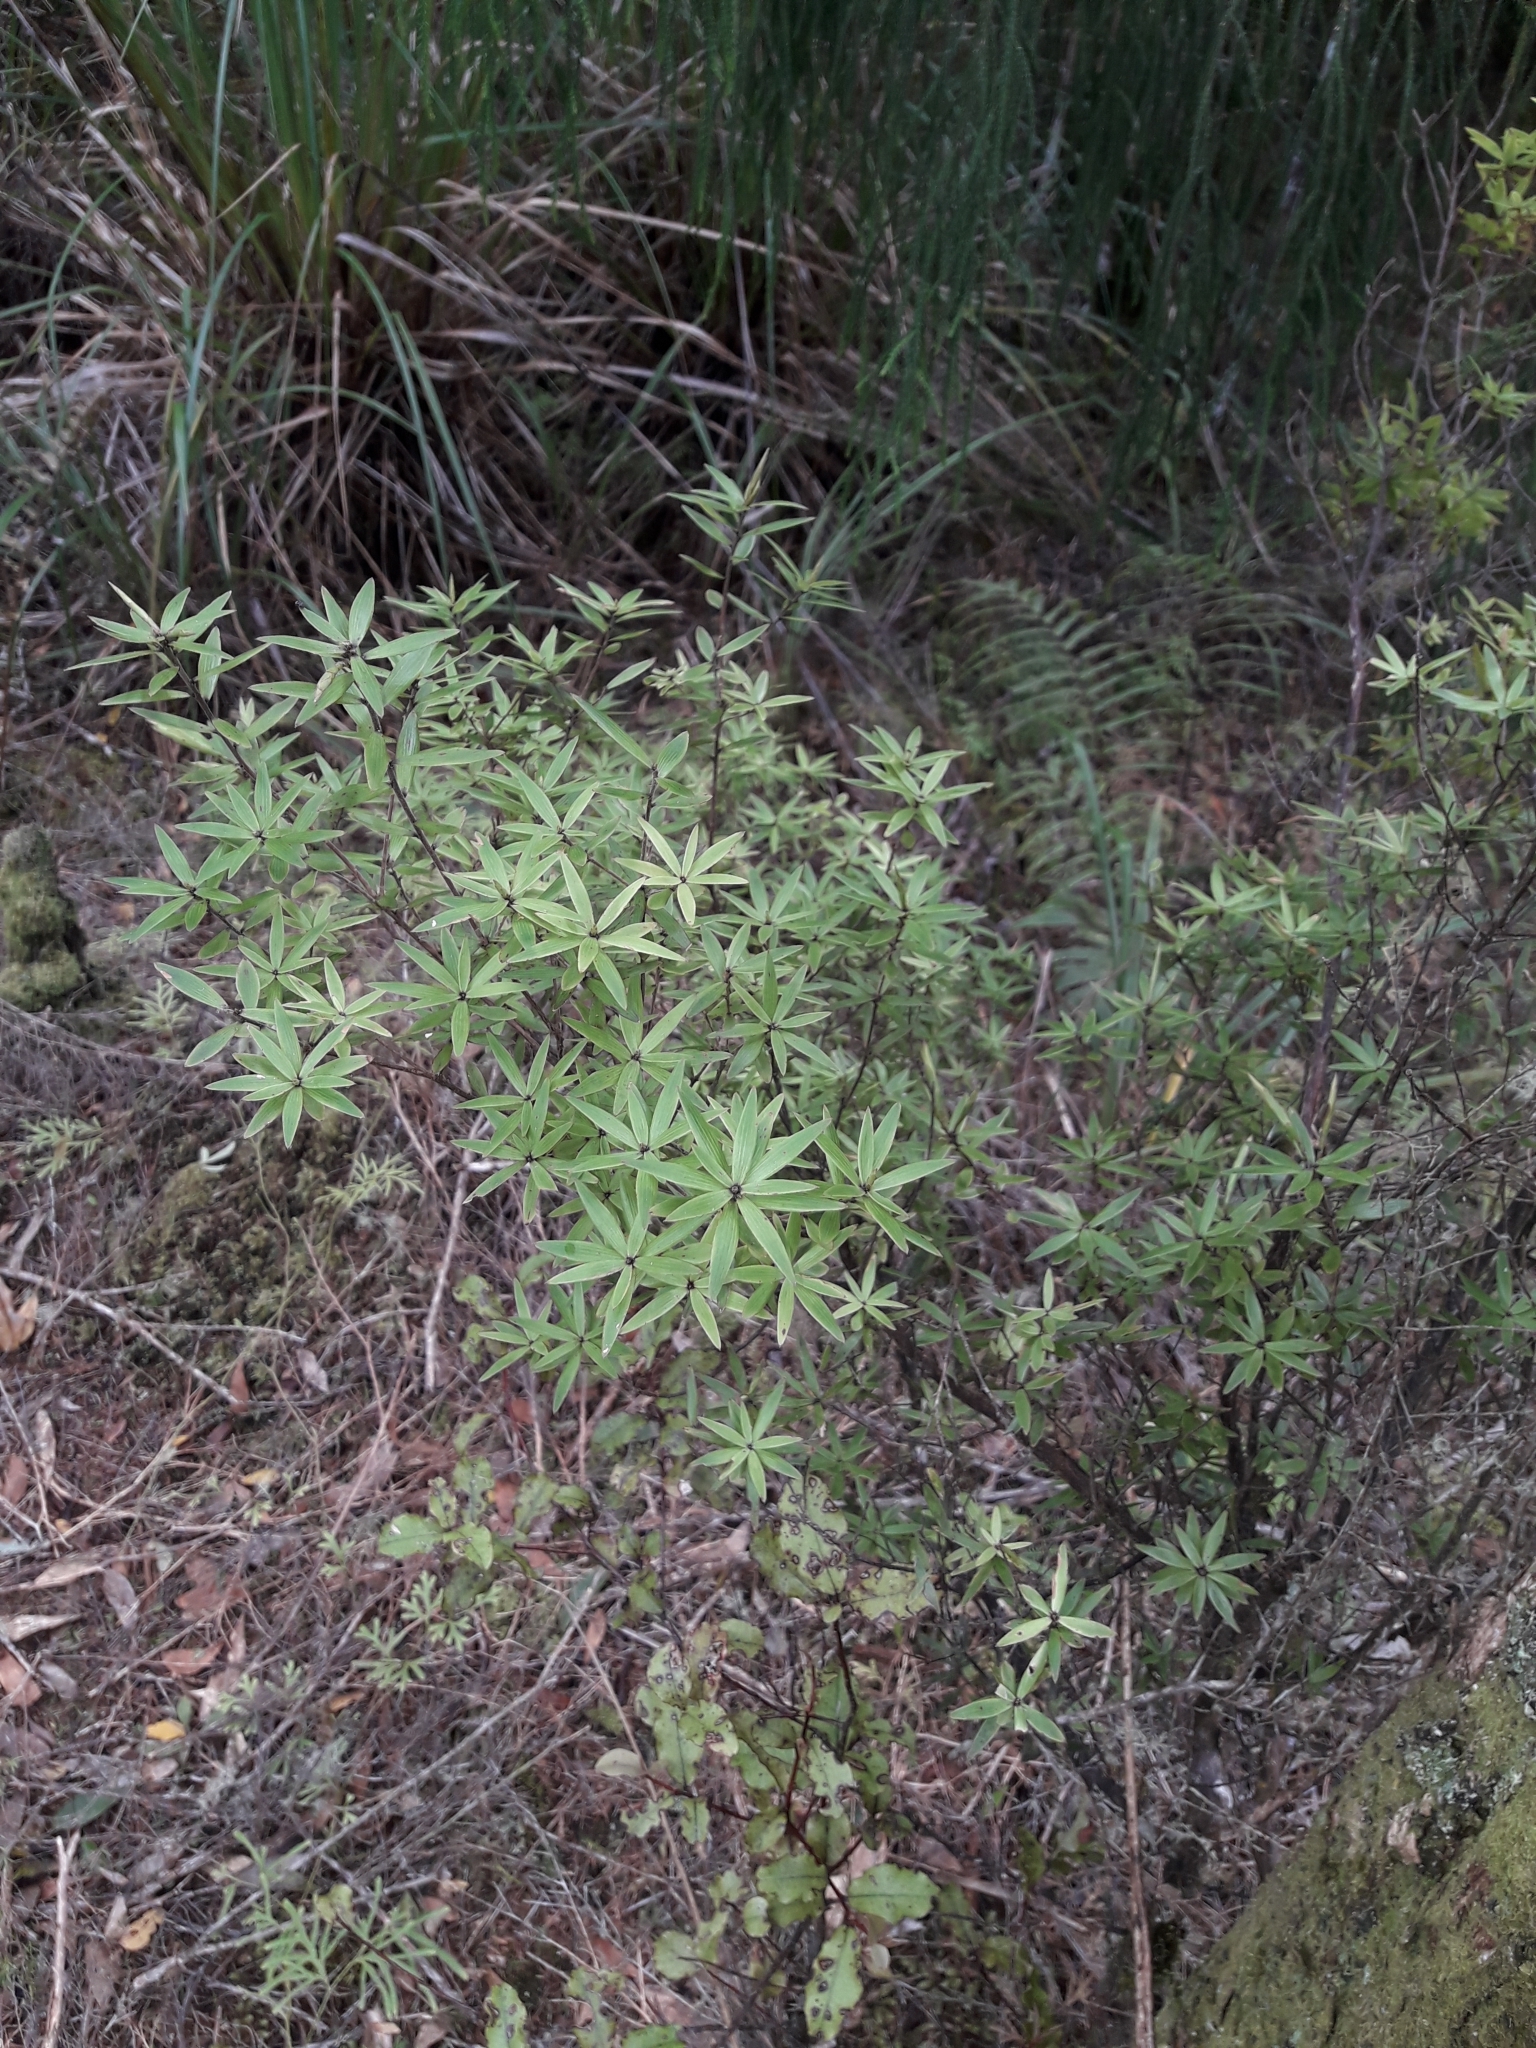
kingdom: Plantae
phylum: Tracheophyta
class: Magnoliopsida
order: Ericales
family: Ericaceae
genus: Leucopogon
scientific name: Leucopogon fasciculatus
